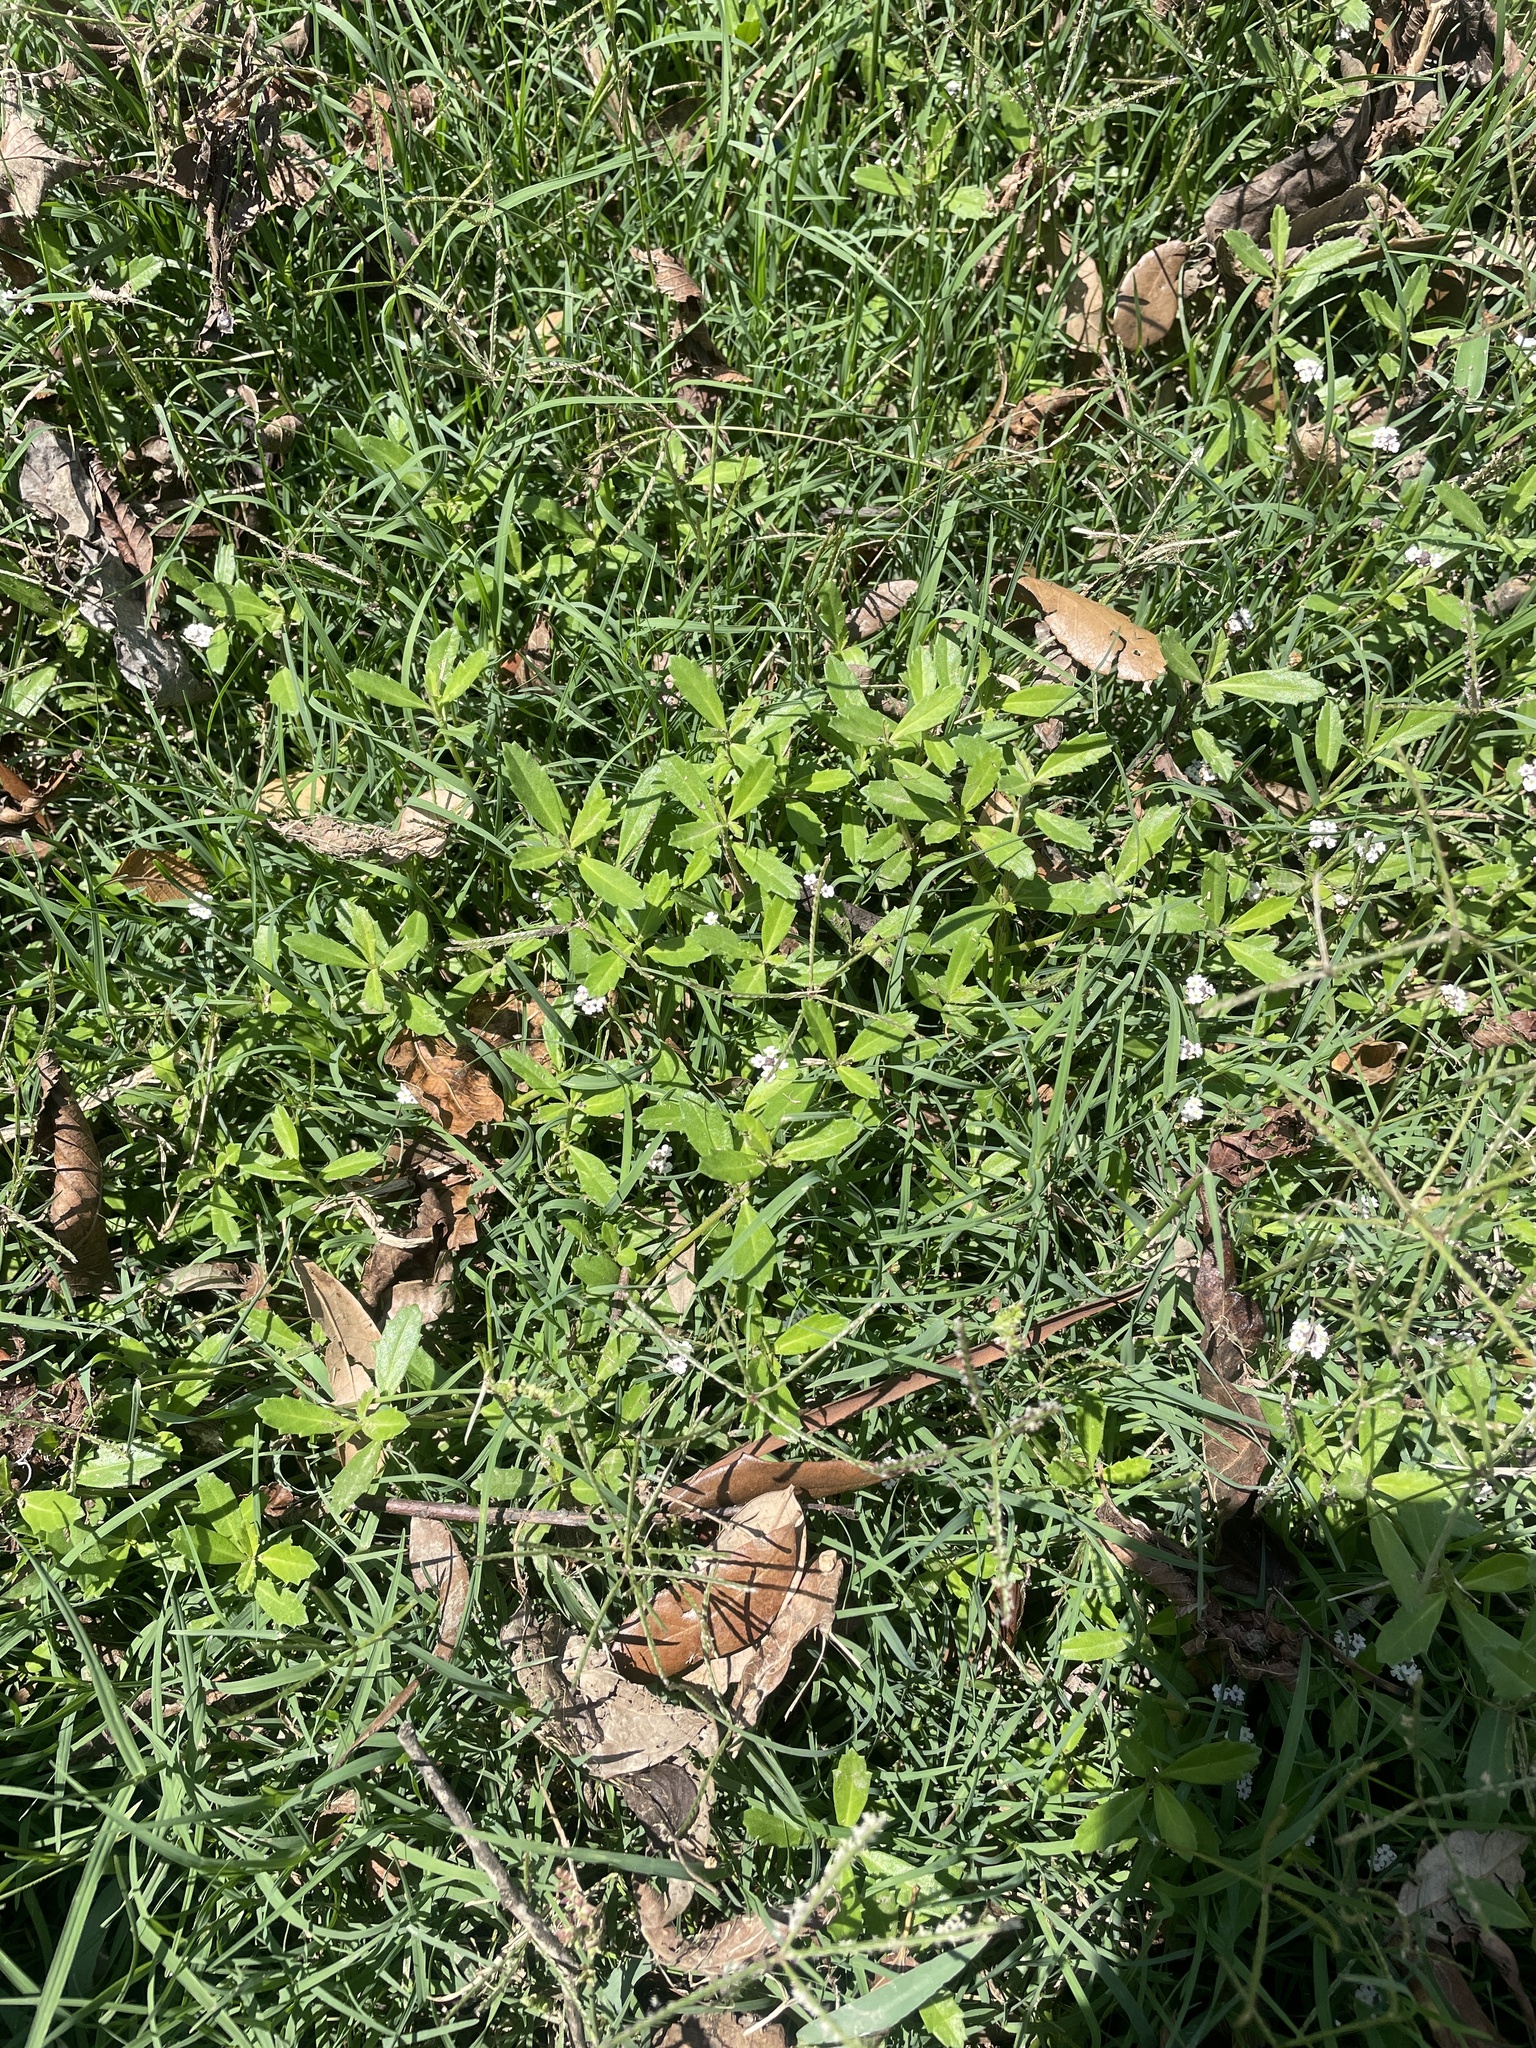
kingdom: Plantae
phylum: Tracheophyta
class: Magnoliopsida
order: Lamiales
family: Verbenaceae
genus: Phyla
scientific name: Phyla nodiflora
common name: Frogfruit
